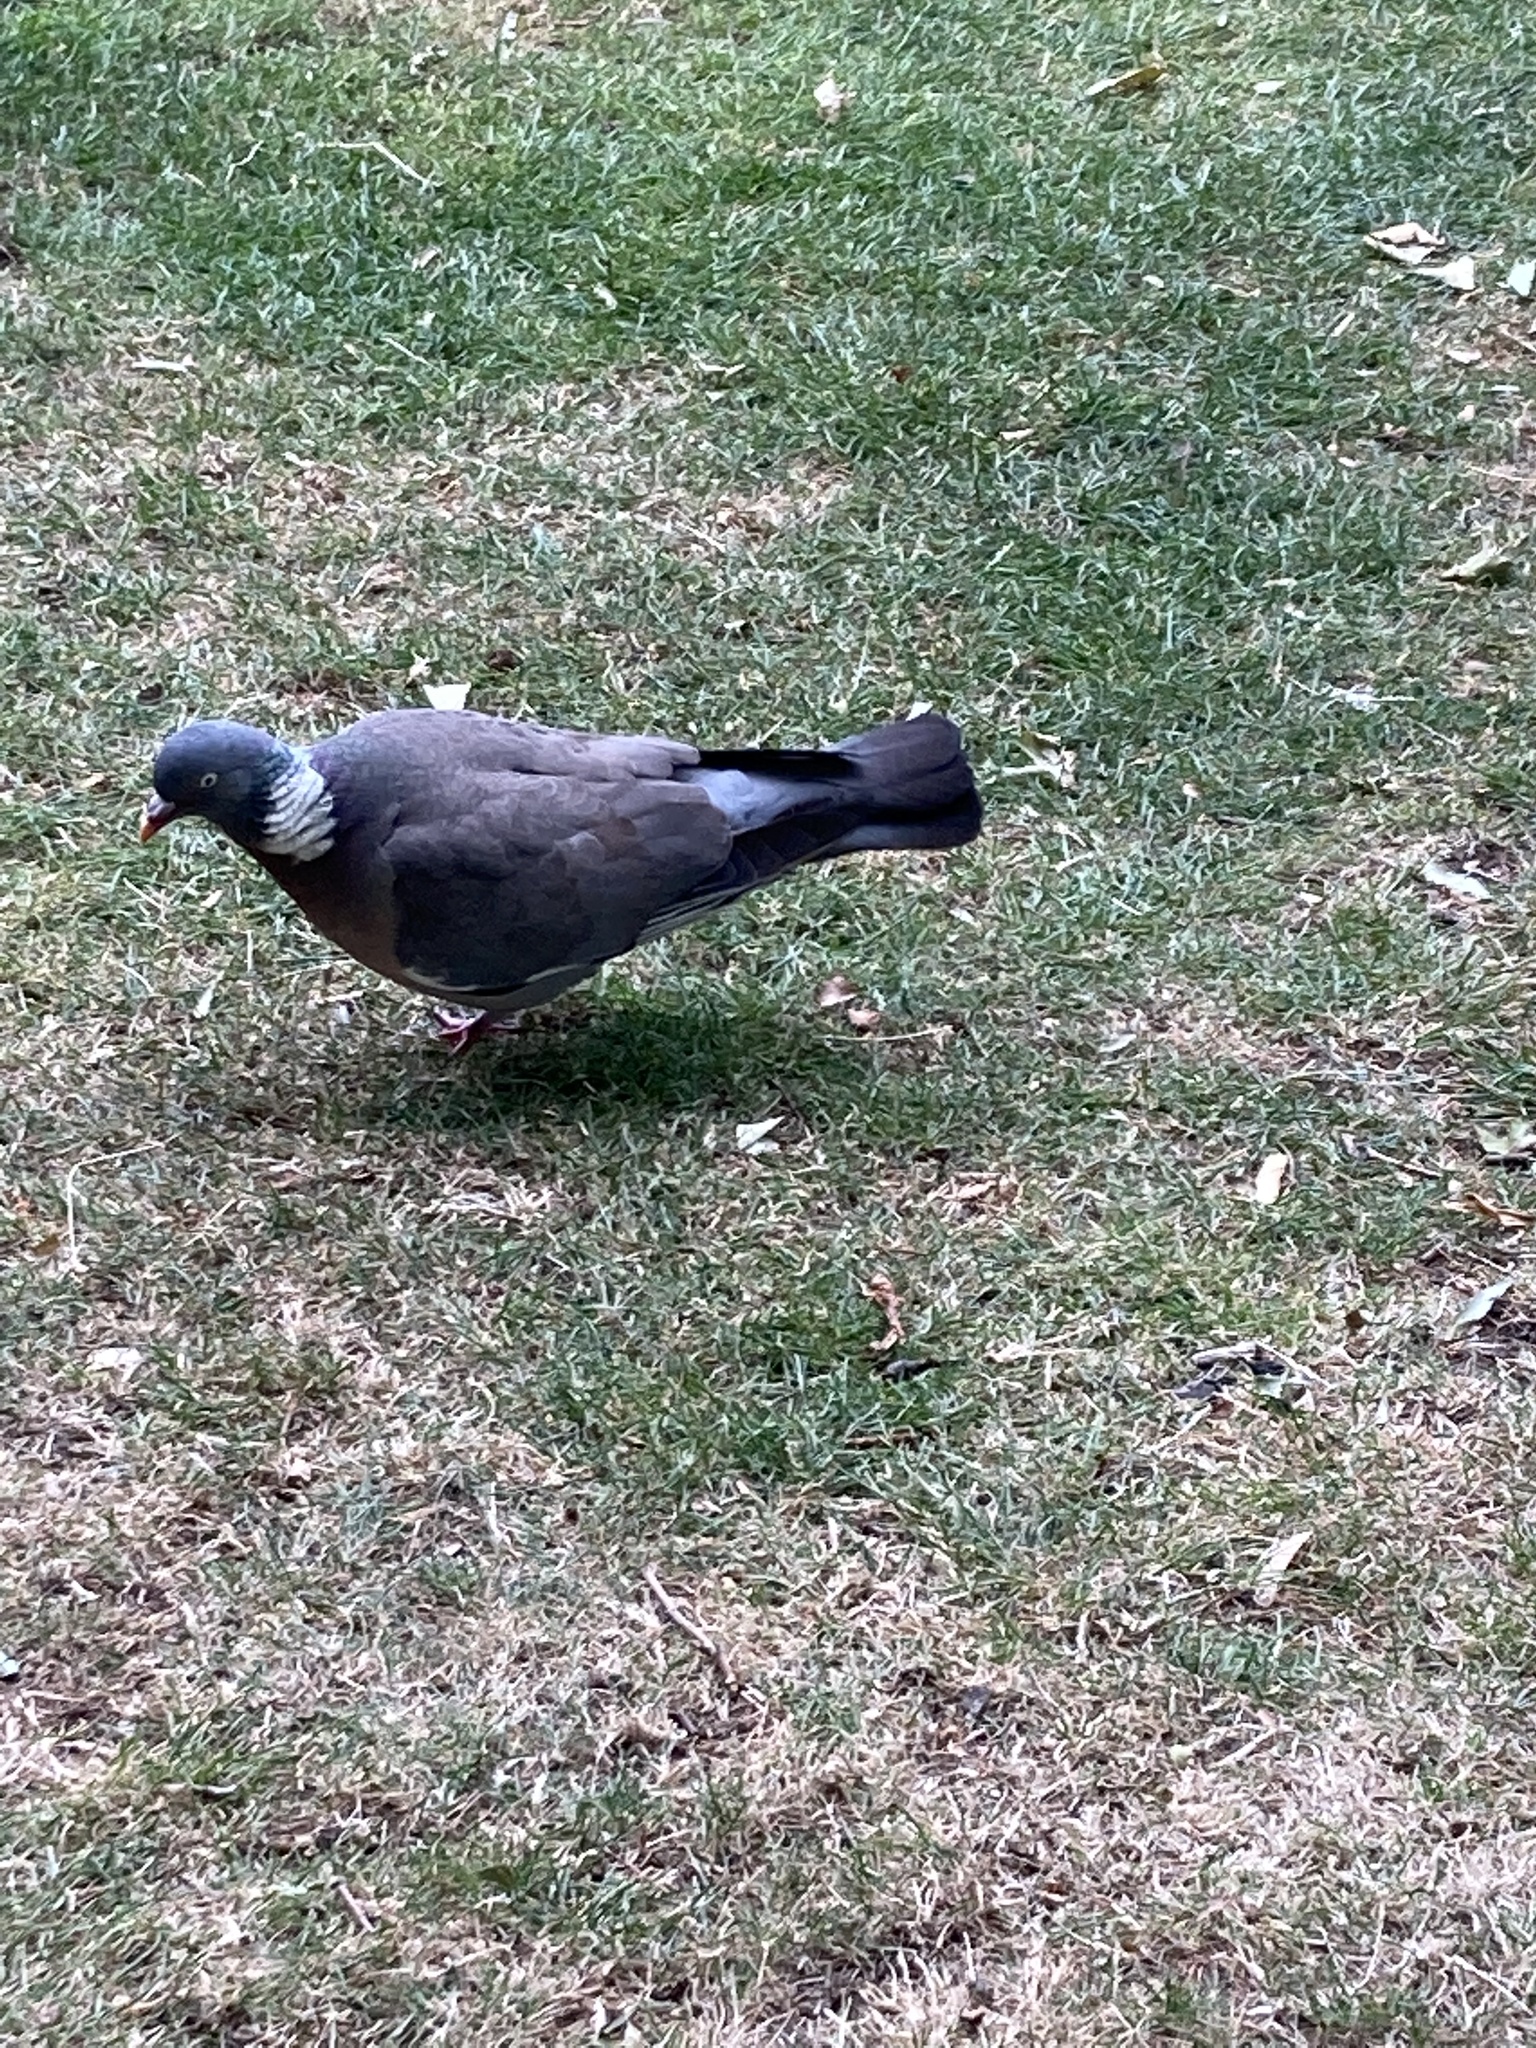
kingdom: Animalia
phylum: Chordata
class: Aves
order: Columbiformes
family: Columbidae
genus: Columba
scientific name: Columba palumbus
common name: Common wood pigeon
